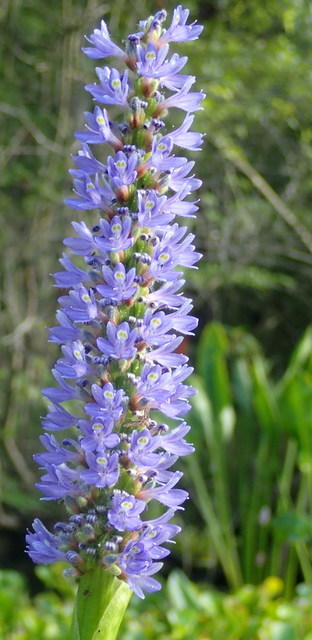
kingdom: Plantae
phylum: Tracheophyta
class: Liliopsida
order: Commelinales
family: Pontederiaceae
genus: Pontederia
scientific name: Pontederia cordata
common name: Pickerelweed
